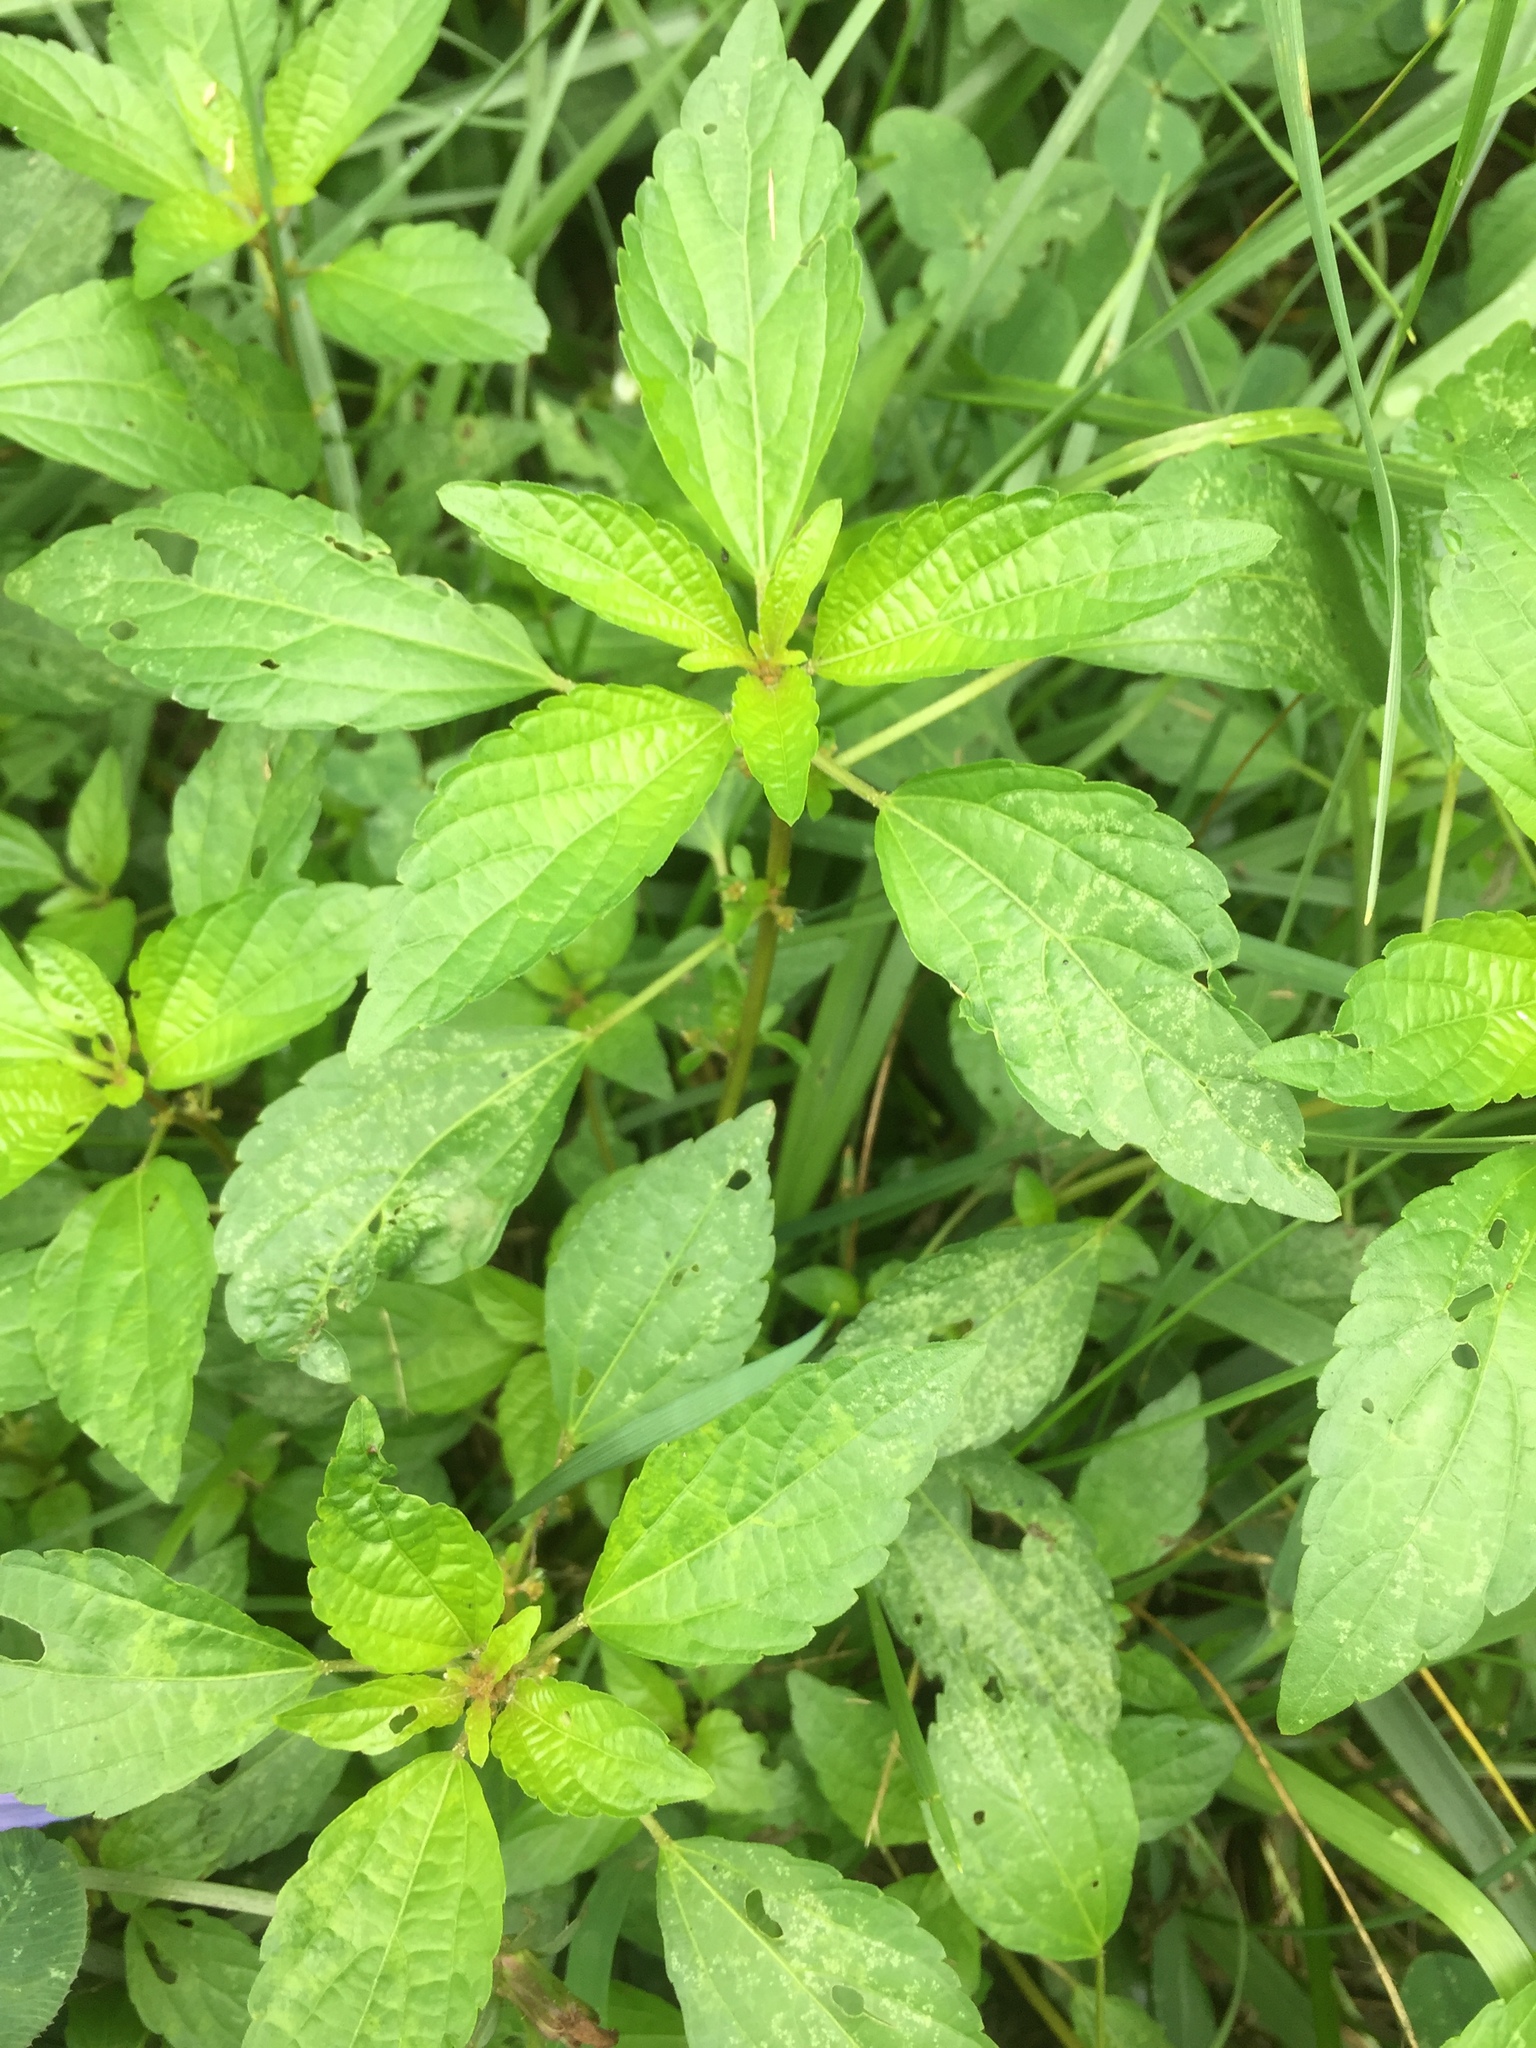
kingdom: Plantae
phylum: Tracheophyta
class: Magnoliopsida
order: Malpighiales
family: Euphorbiaceae
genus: Acalypha
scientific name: Acalypha rhomboidea
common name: Rhombic copperleaf
